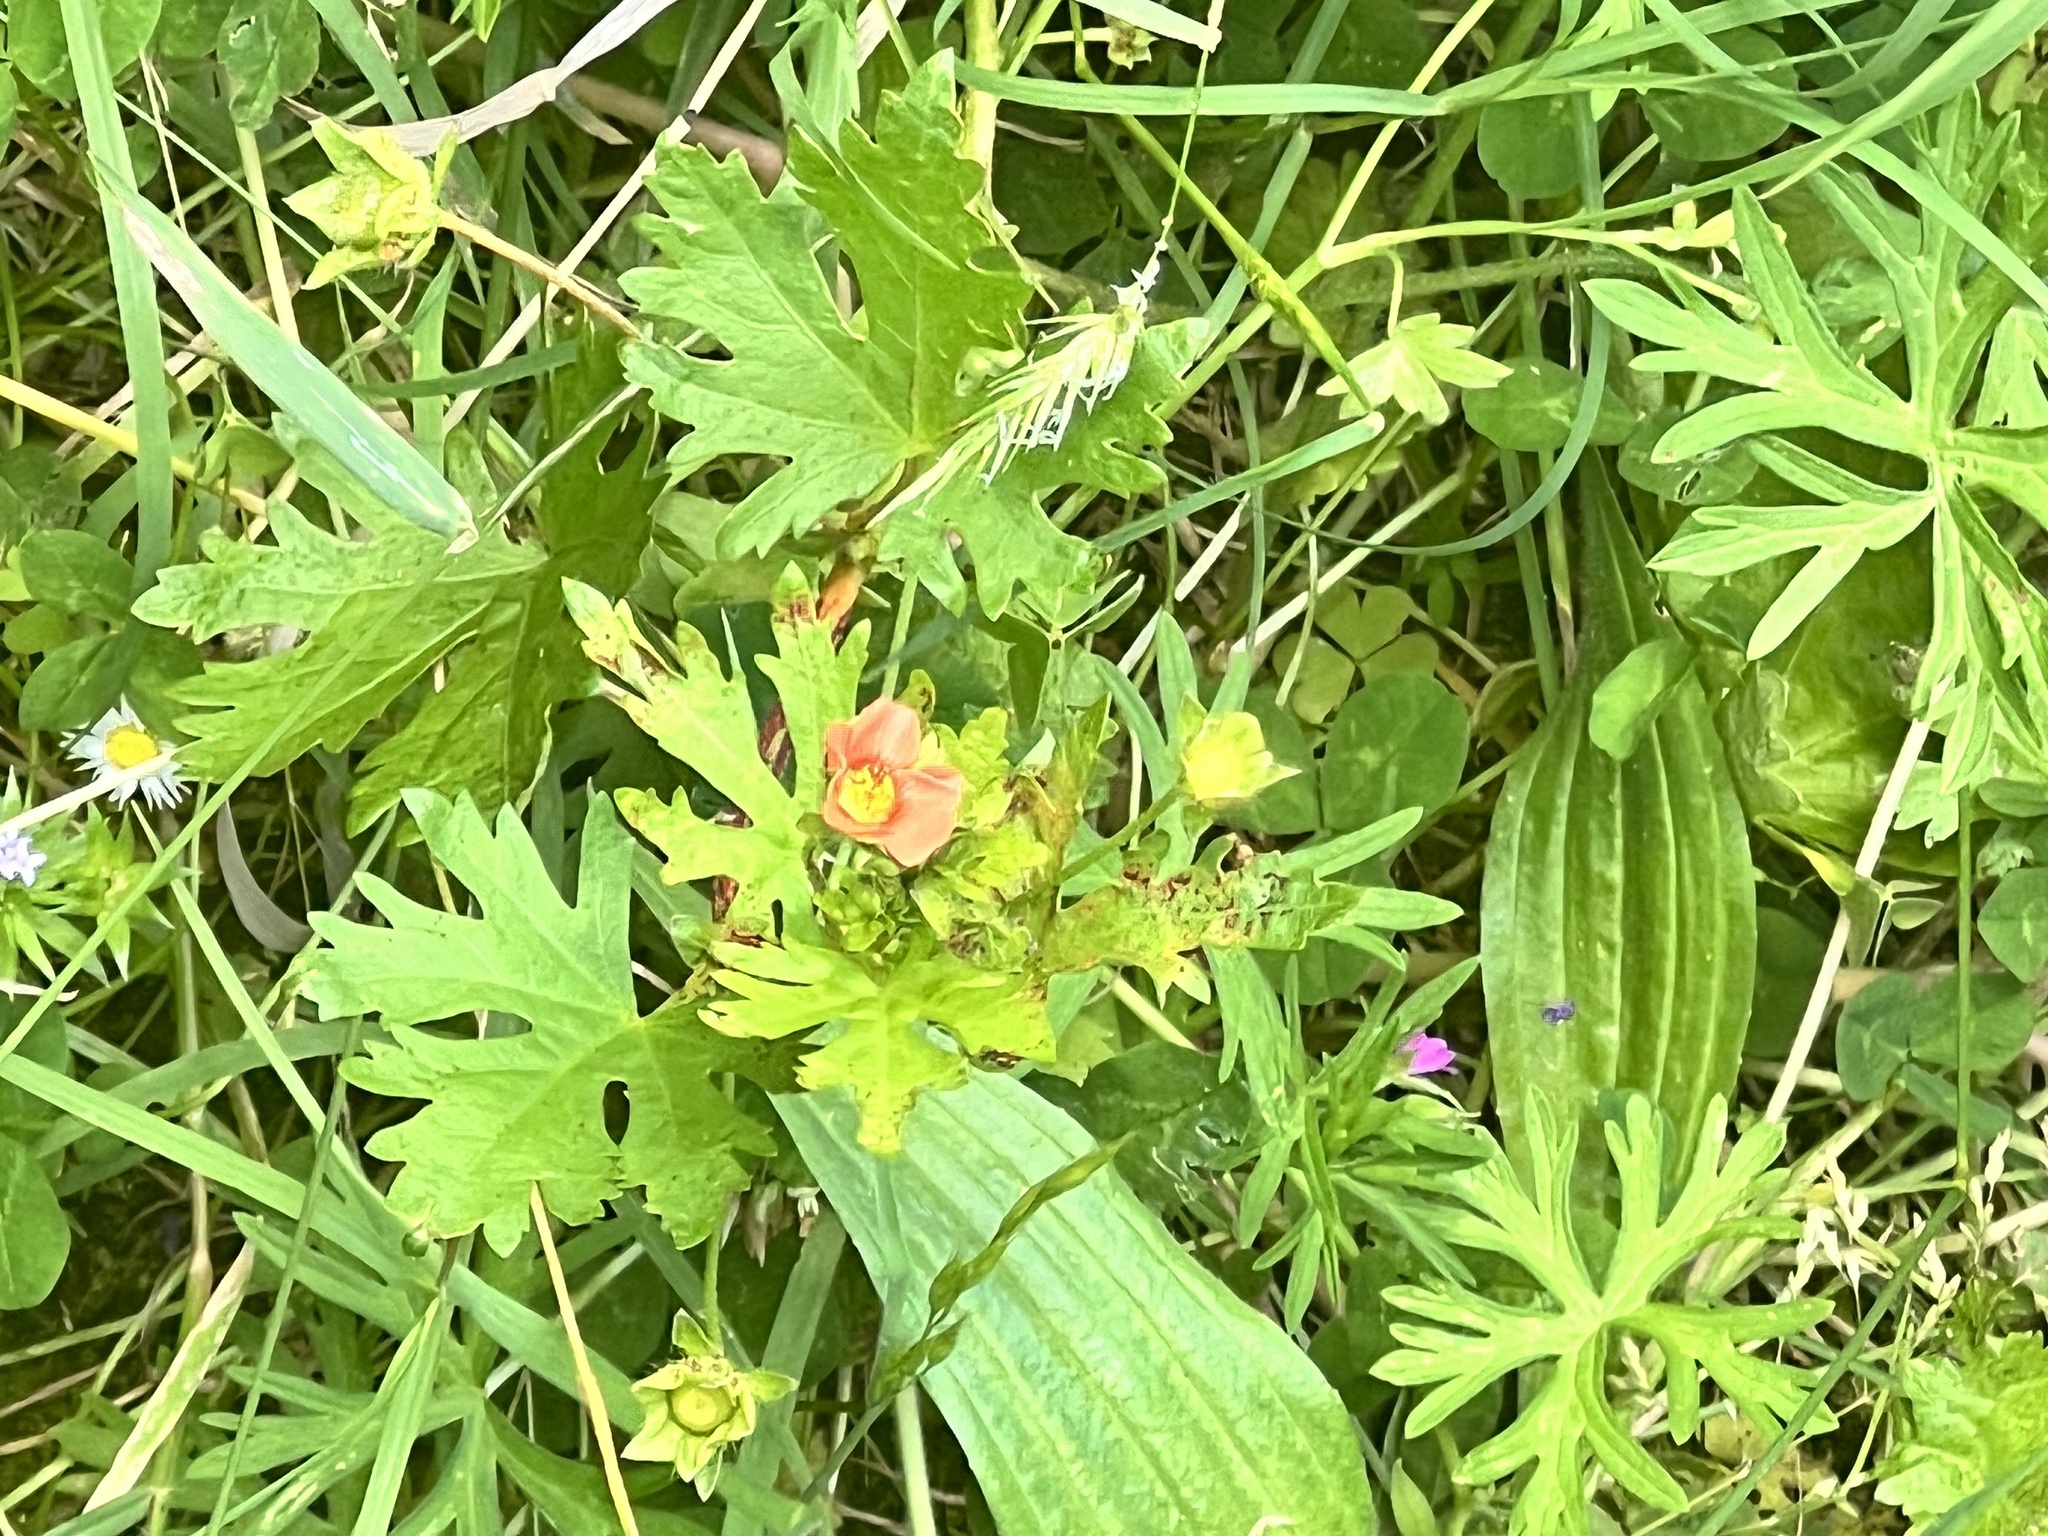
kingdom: Plantae
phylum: Tracheophyta
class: Magnoliopsida
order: Malvales
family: Malvaceae
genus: Modiola
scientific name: Modiola caroliniana
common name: Carolina bristlemallow
